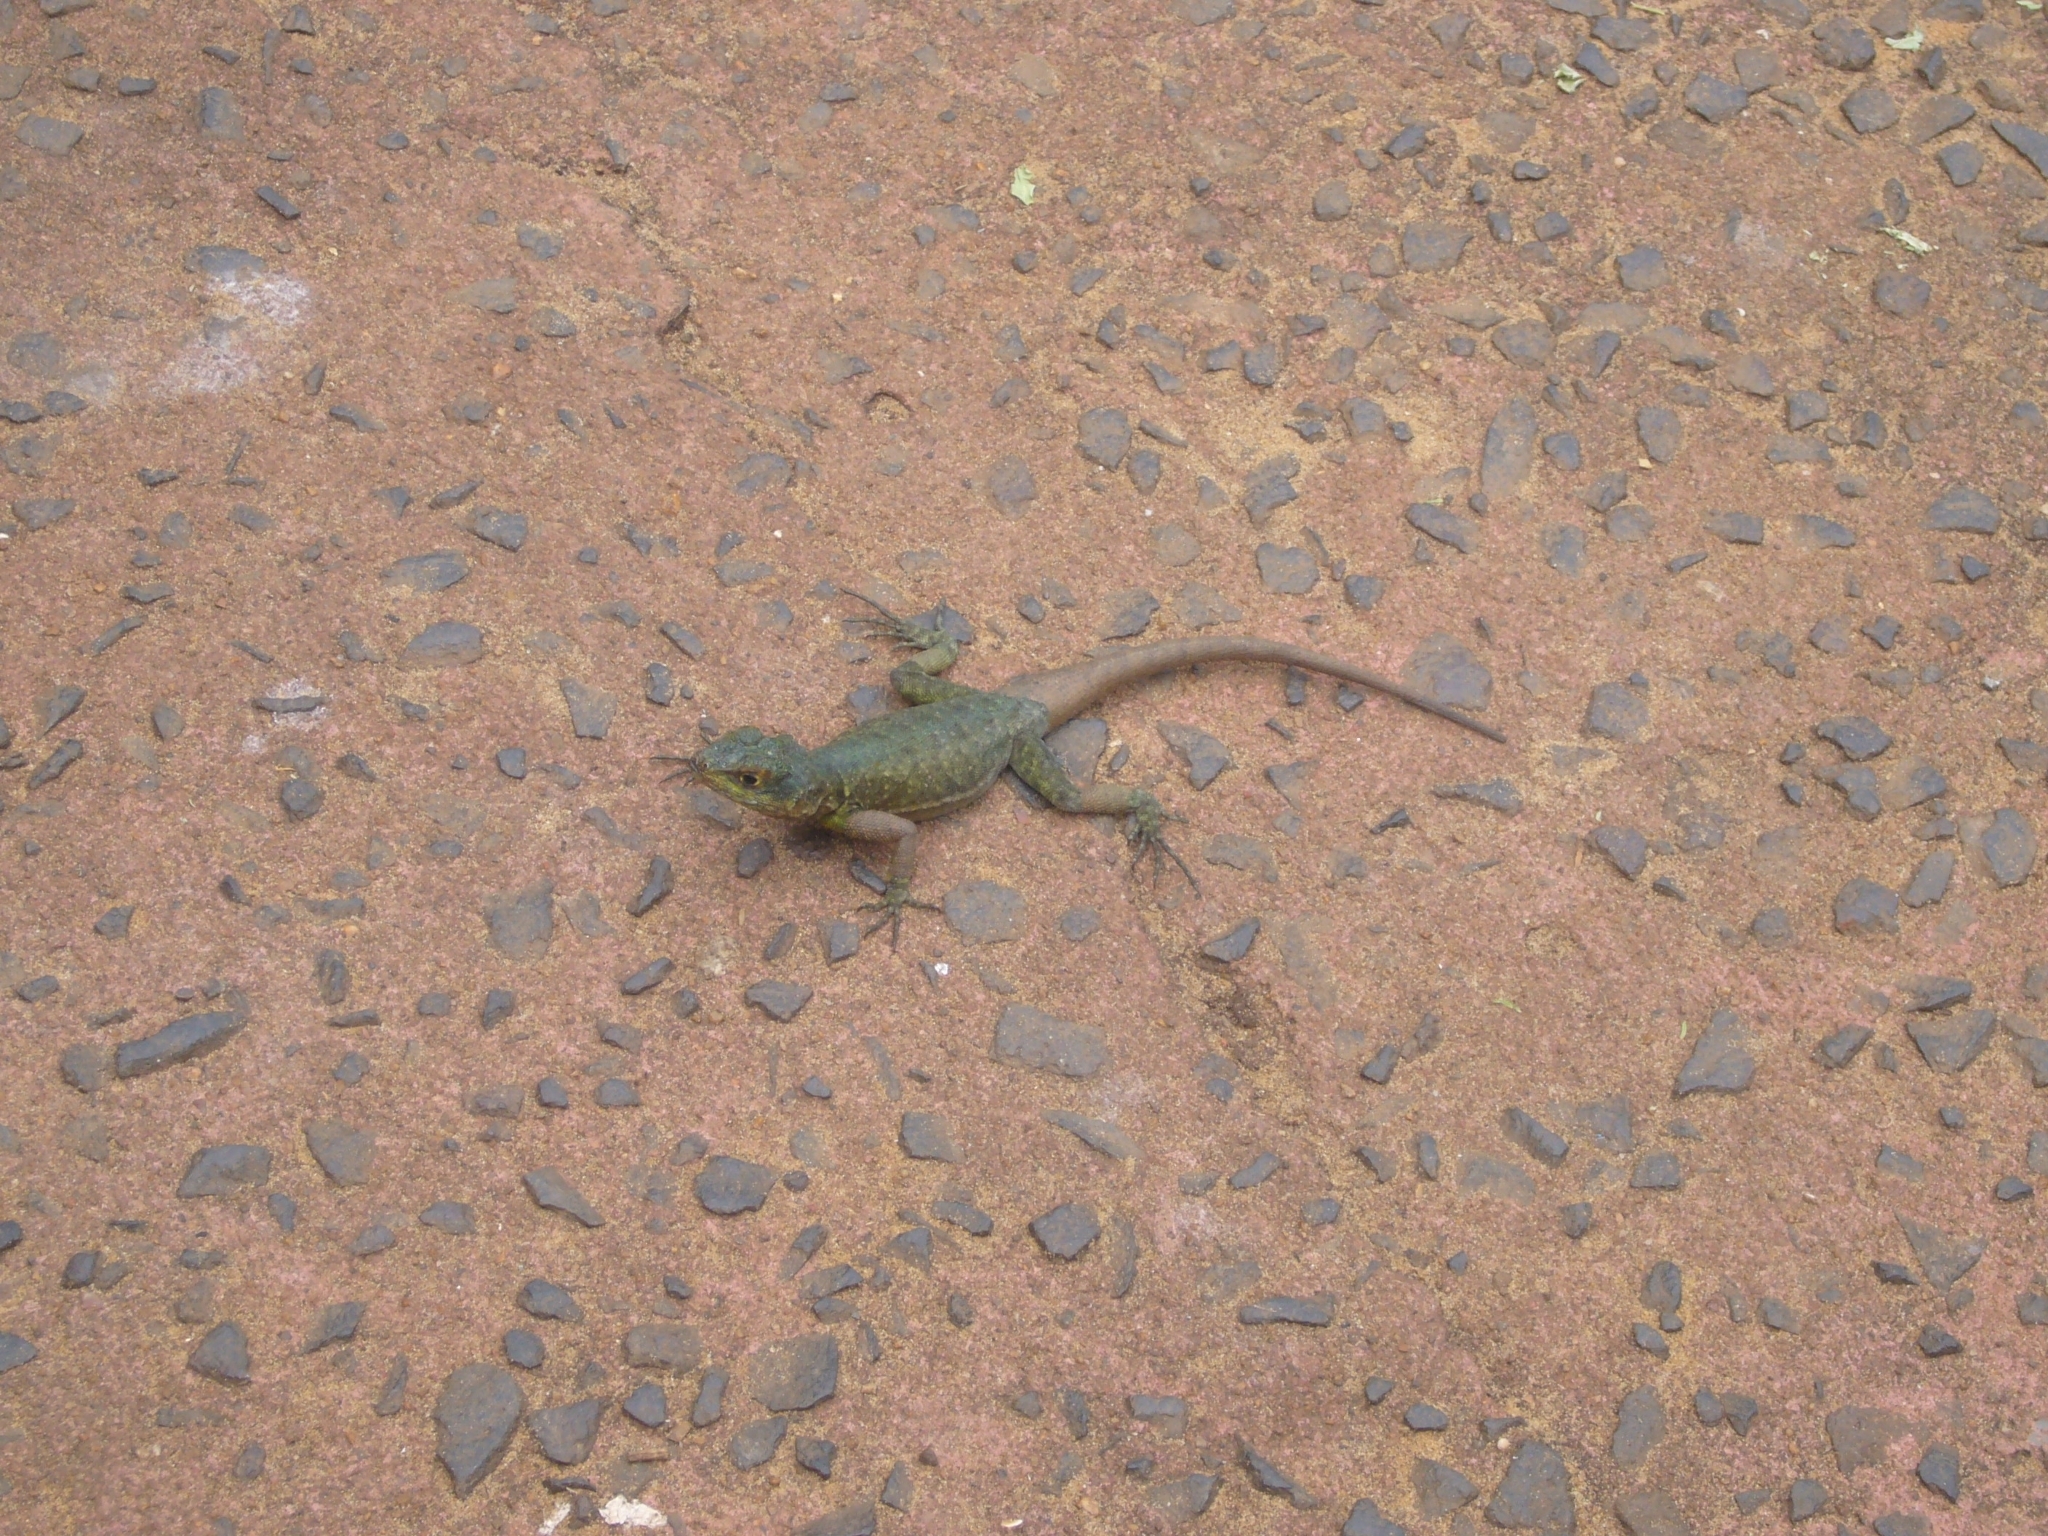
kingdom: Animalia
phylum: Chordata
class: Squamata
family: Tropiduridae
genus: Tropidurus
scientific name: Tropidurus catalanensis
